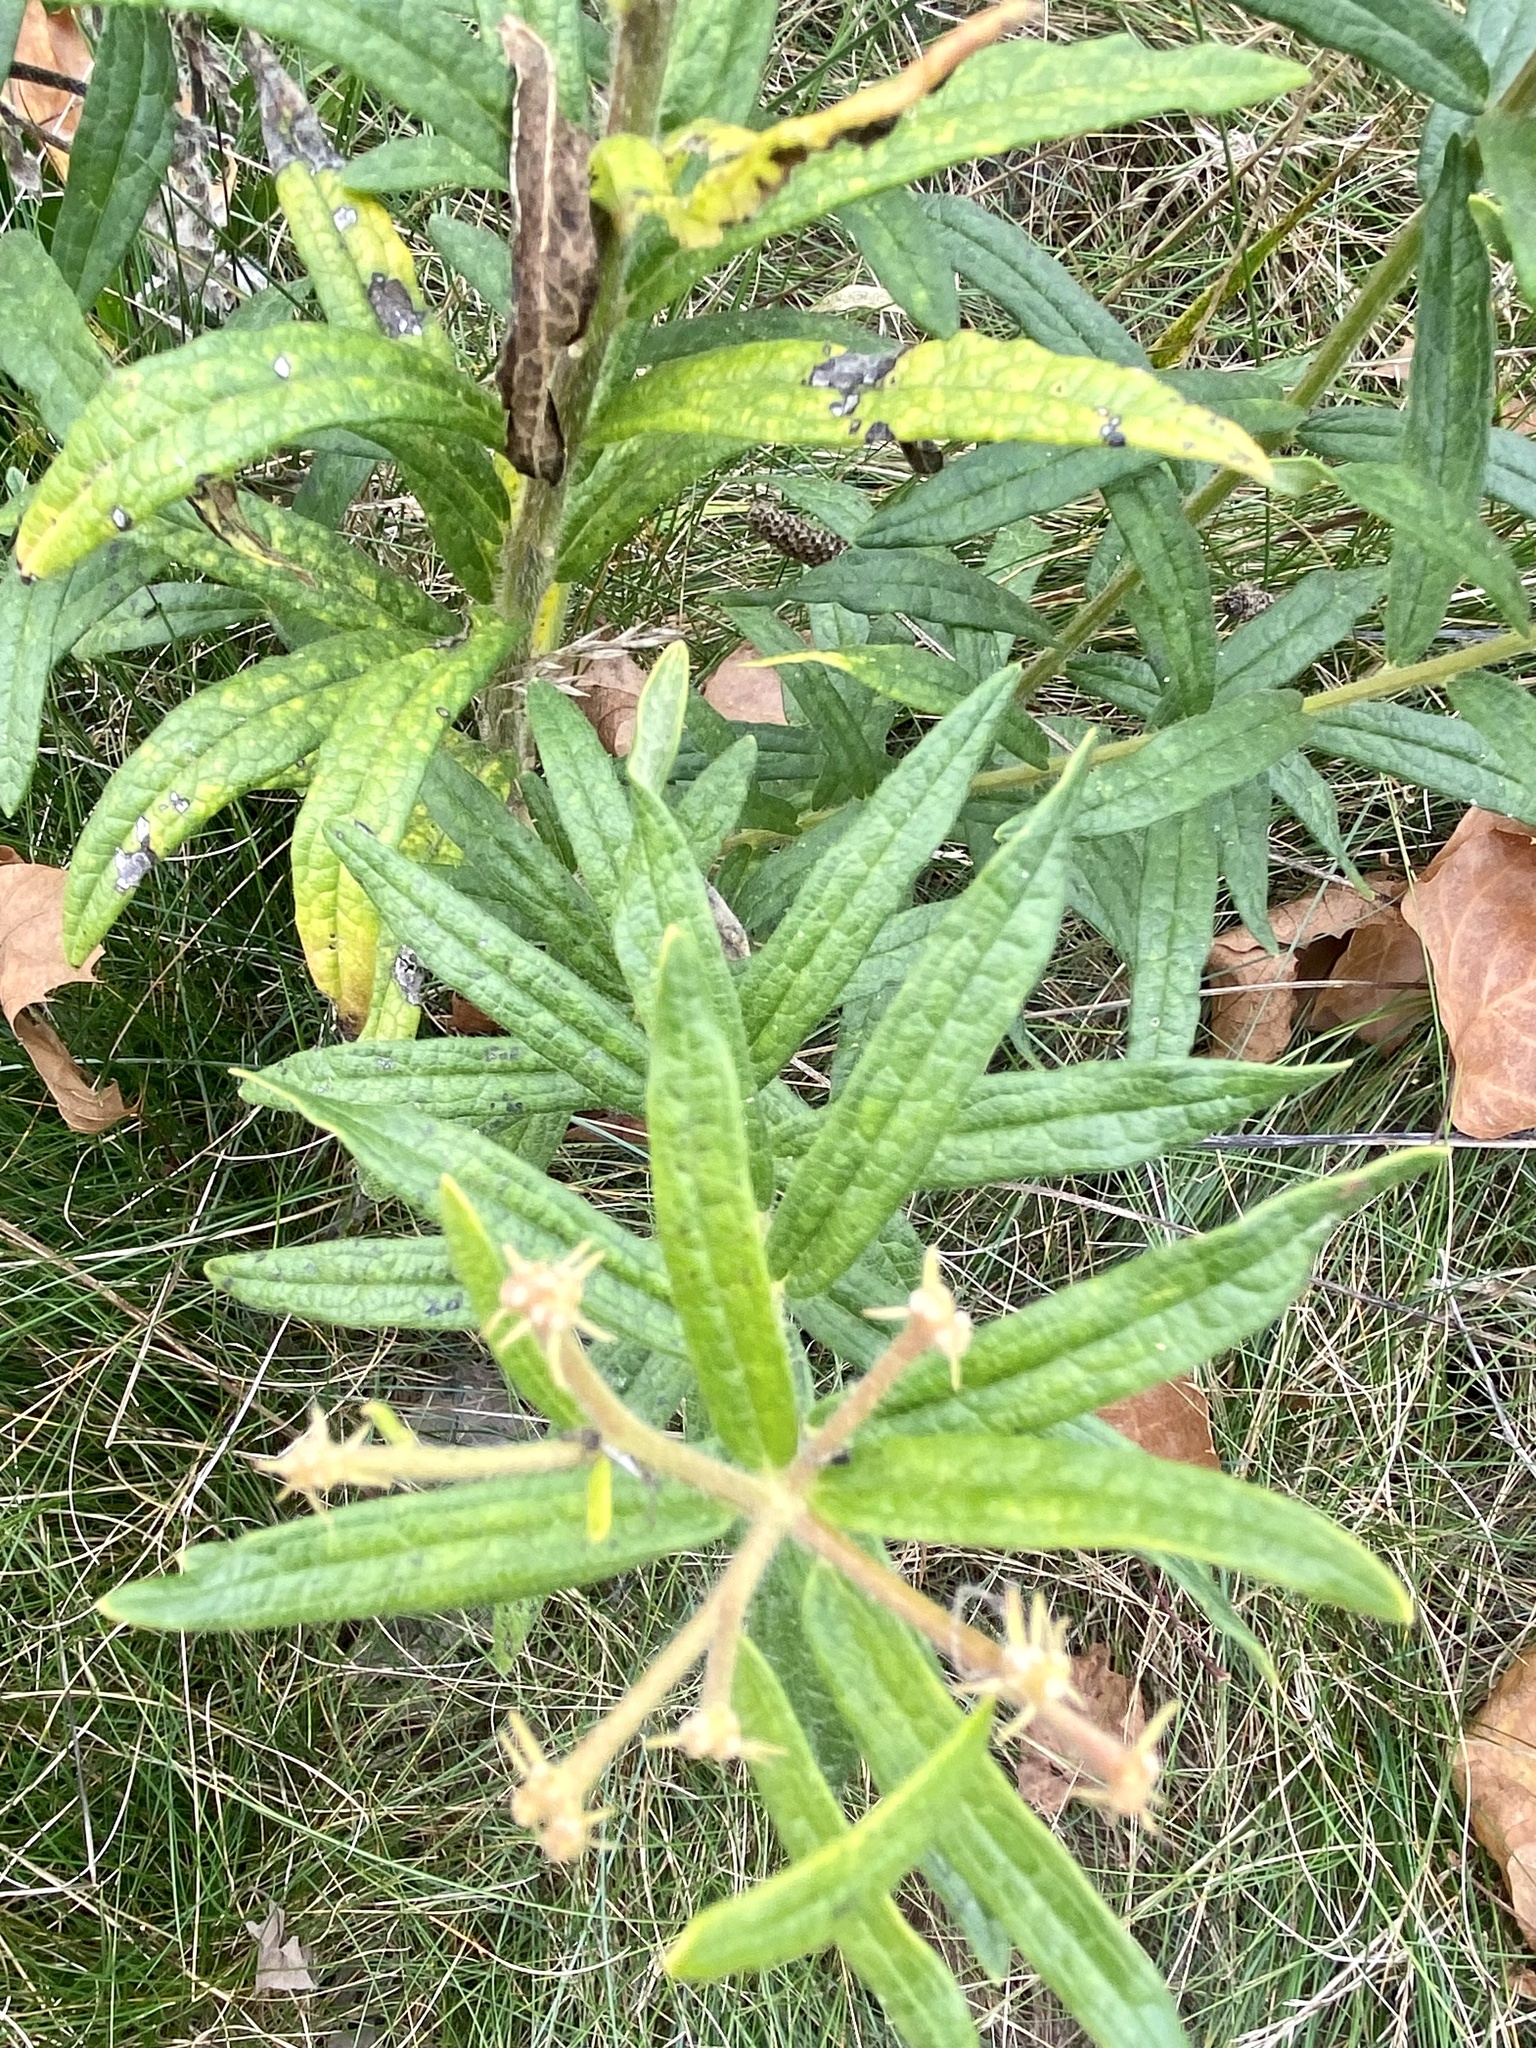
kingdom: Plantae
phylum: Tracheophyta
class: Magnoliopsida
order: Gentianales
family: Apocynaceae
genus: Asclepias
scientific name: Asclepias tuberosa
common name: Butterfly milkweed
